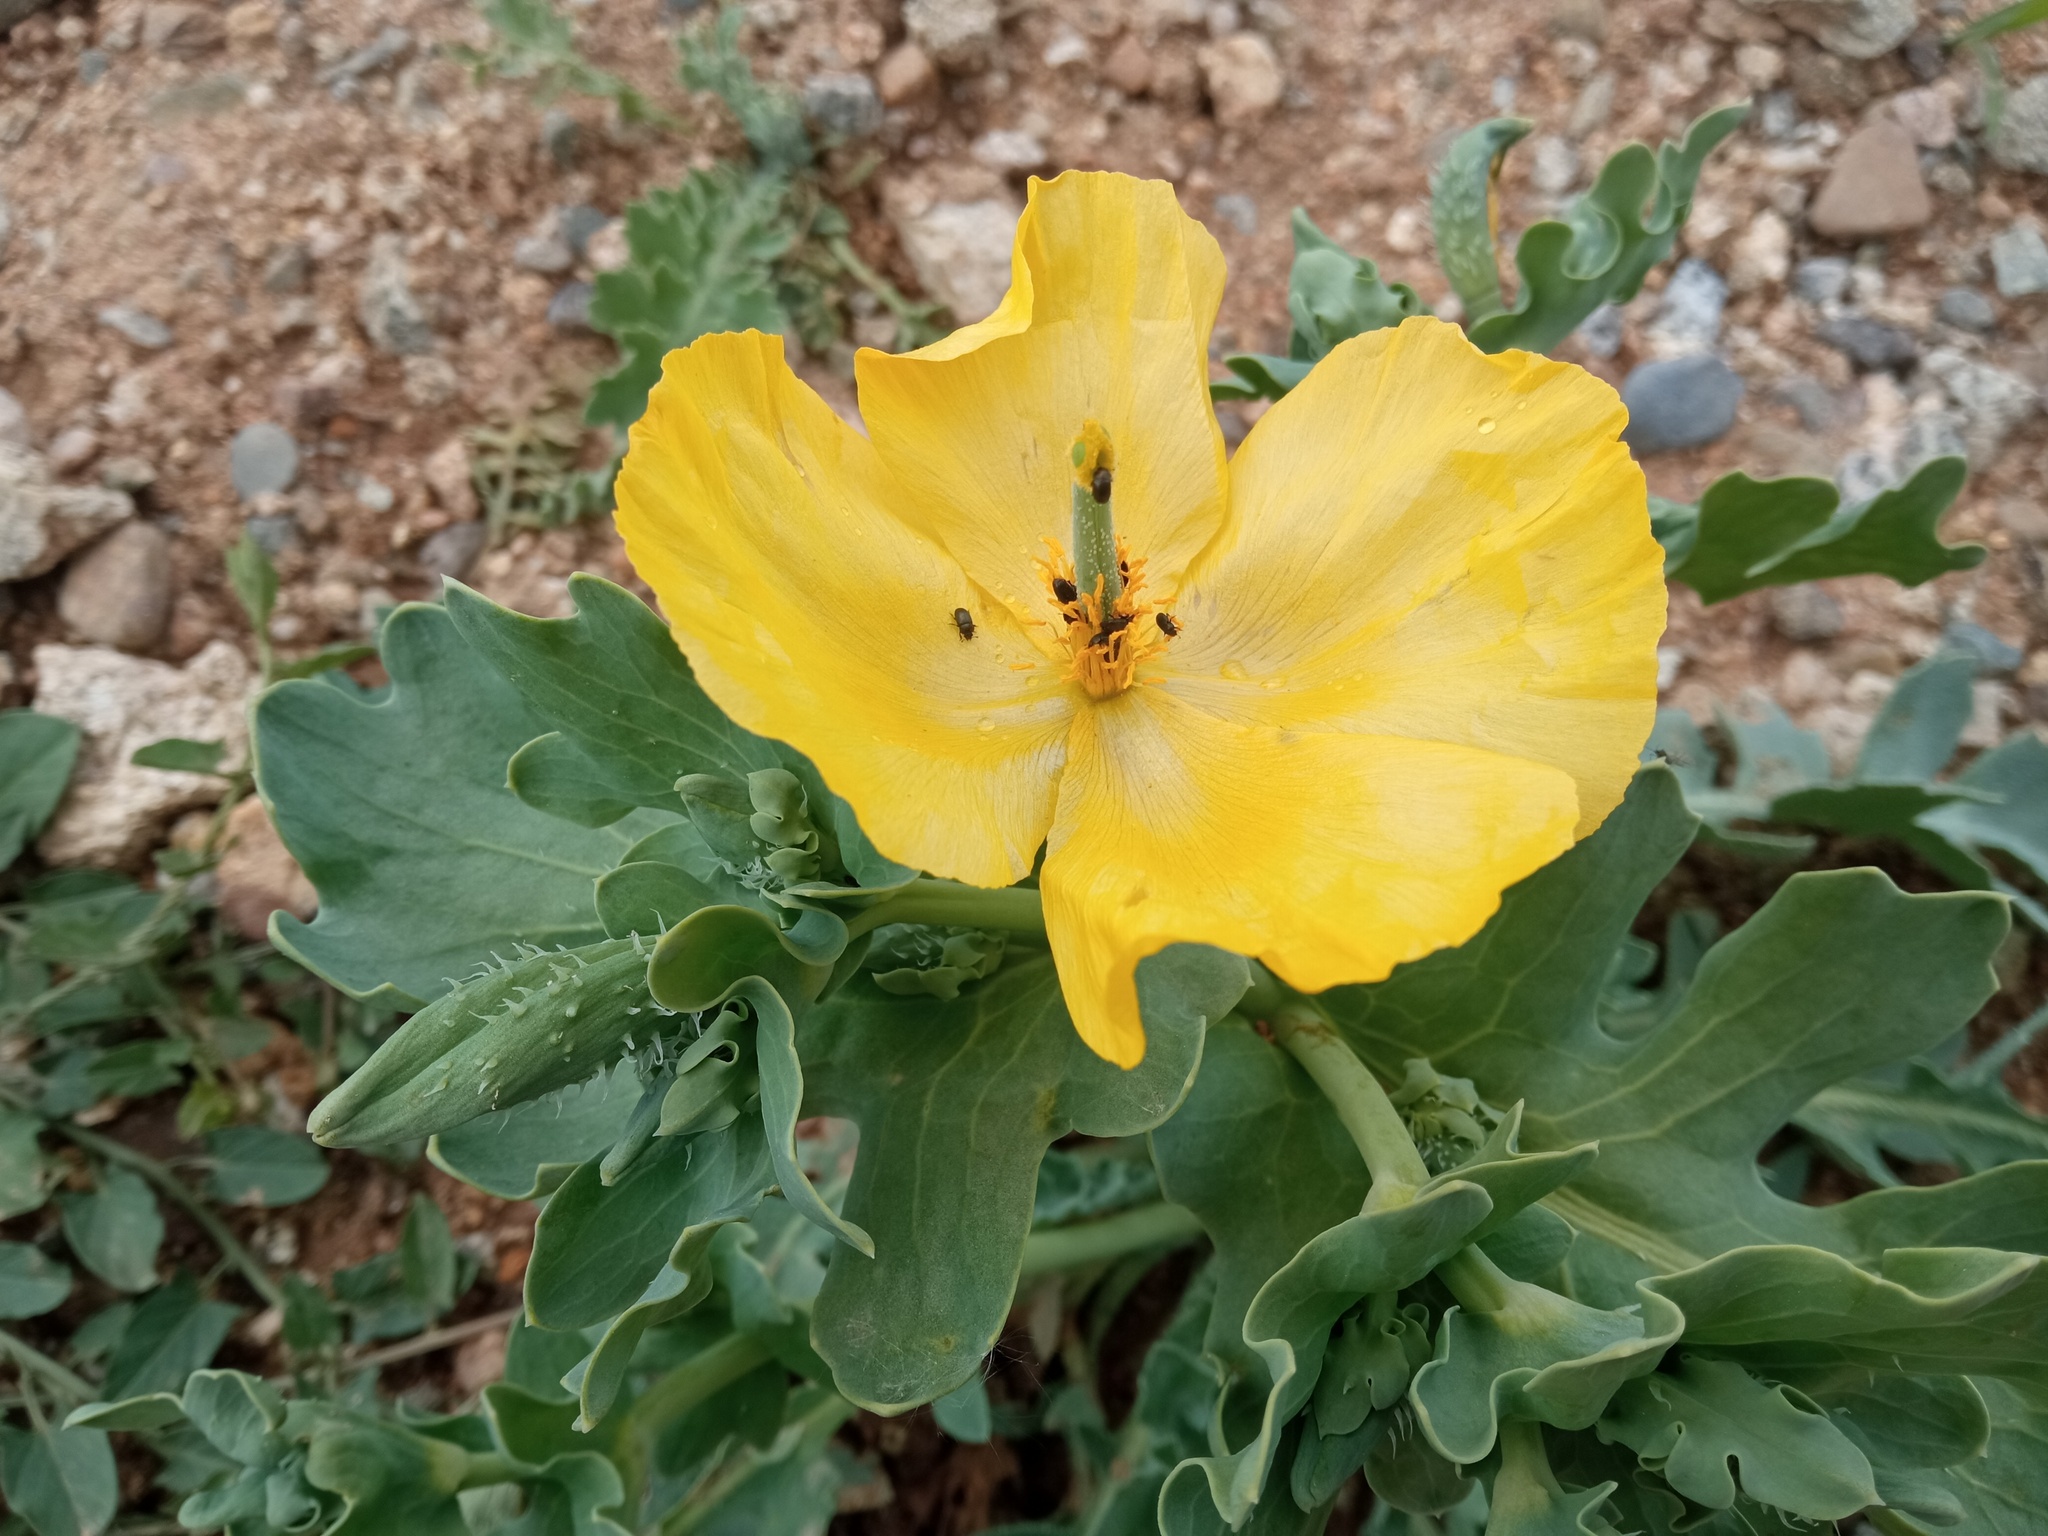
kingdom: Plantae
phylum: Tracheophyta
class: Magnoliopsida
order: Ranunculales
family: Papaveraceae
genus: Glaucium
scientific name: Glaucium flavum
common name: Yellow horned-poppy
